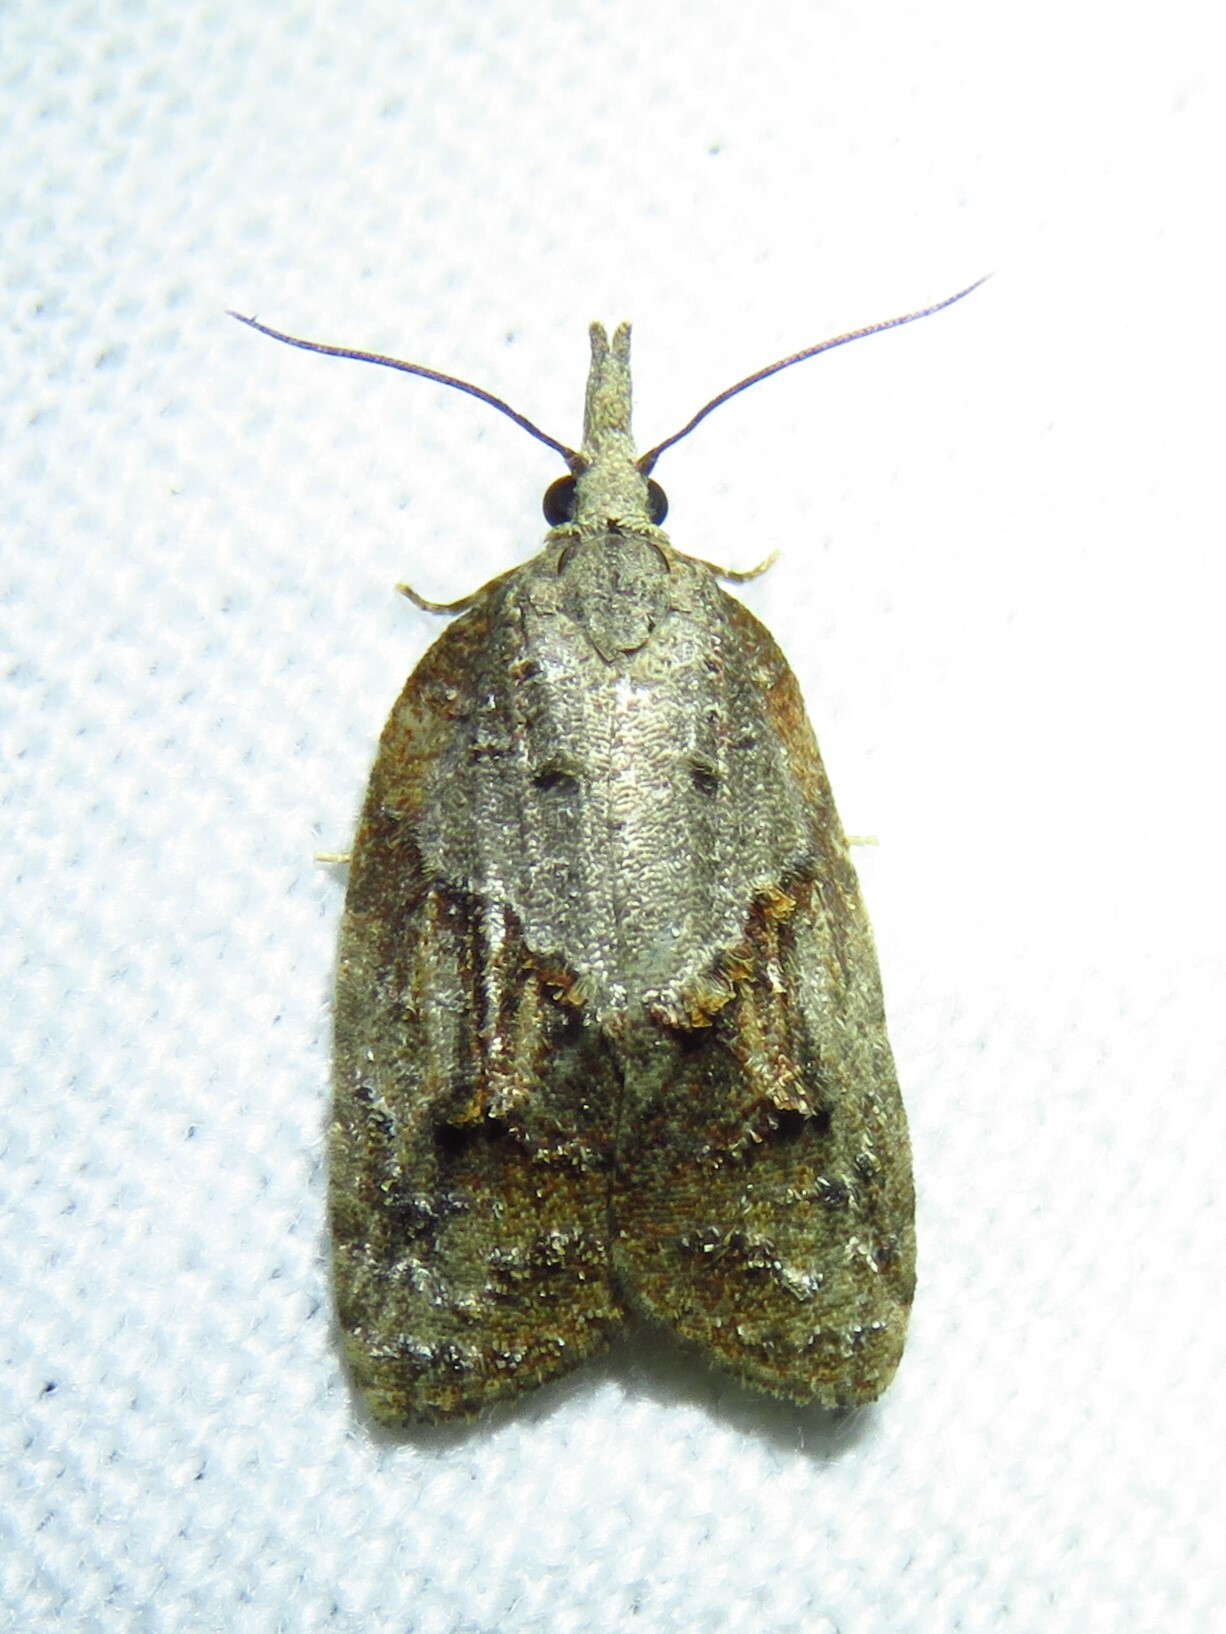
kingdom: Animalia
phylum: Arthropoda
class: Insecta
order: Lepidoptera
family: Tortricidae
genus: Platynota
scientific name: Platynota idaeusalis
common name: Tufted apple bud moth
